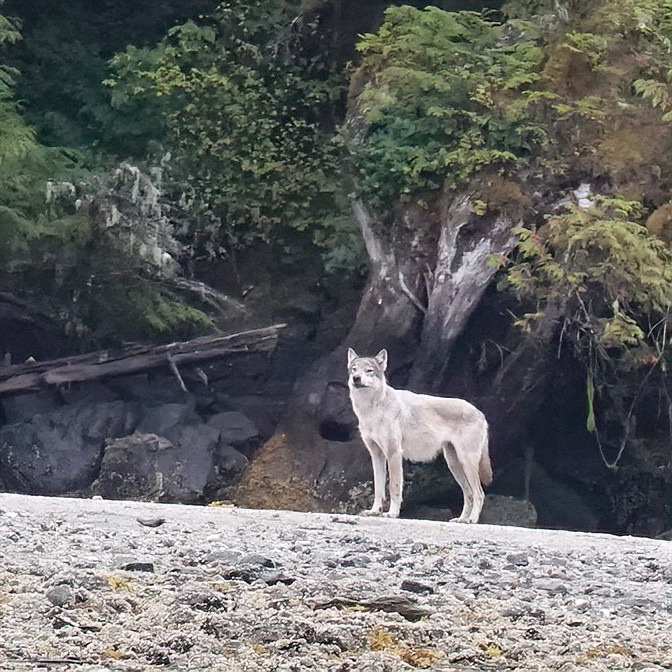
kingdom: Animalia
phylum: Chordata
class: Mammalia
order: Carnivora
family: Canidae
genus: Canis
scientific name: Canis lupus
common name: Gray wolf
